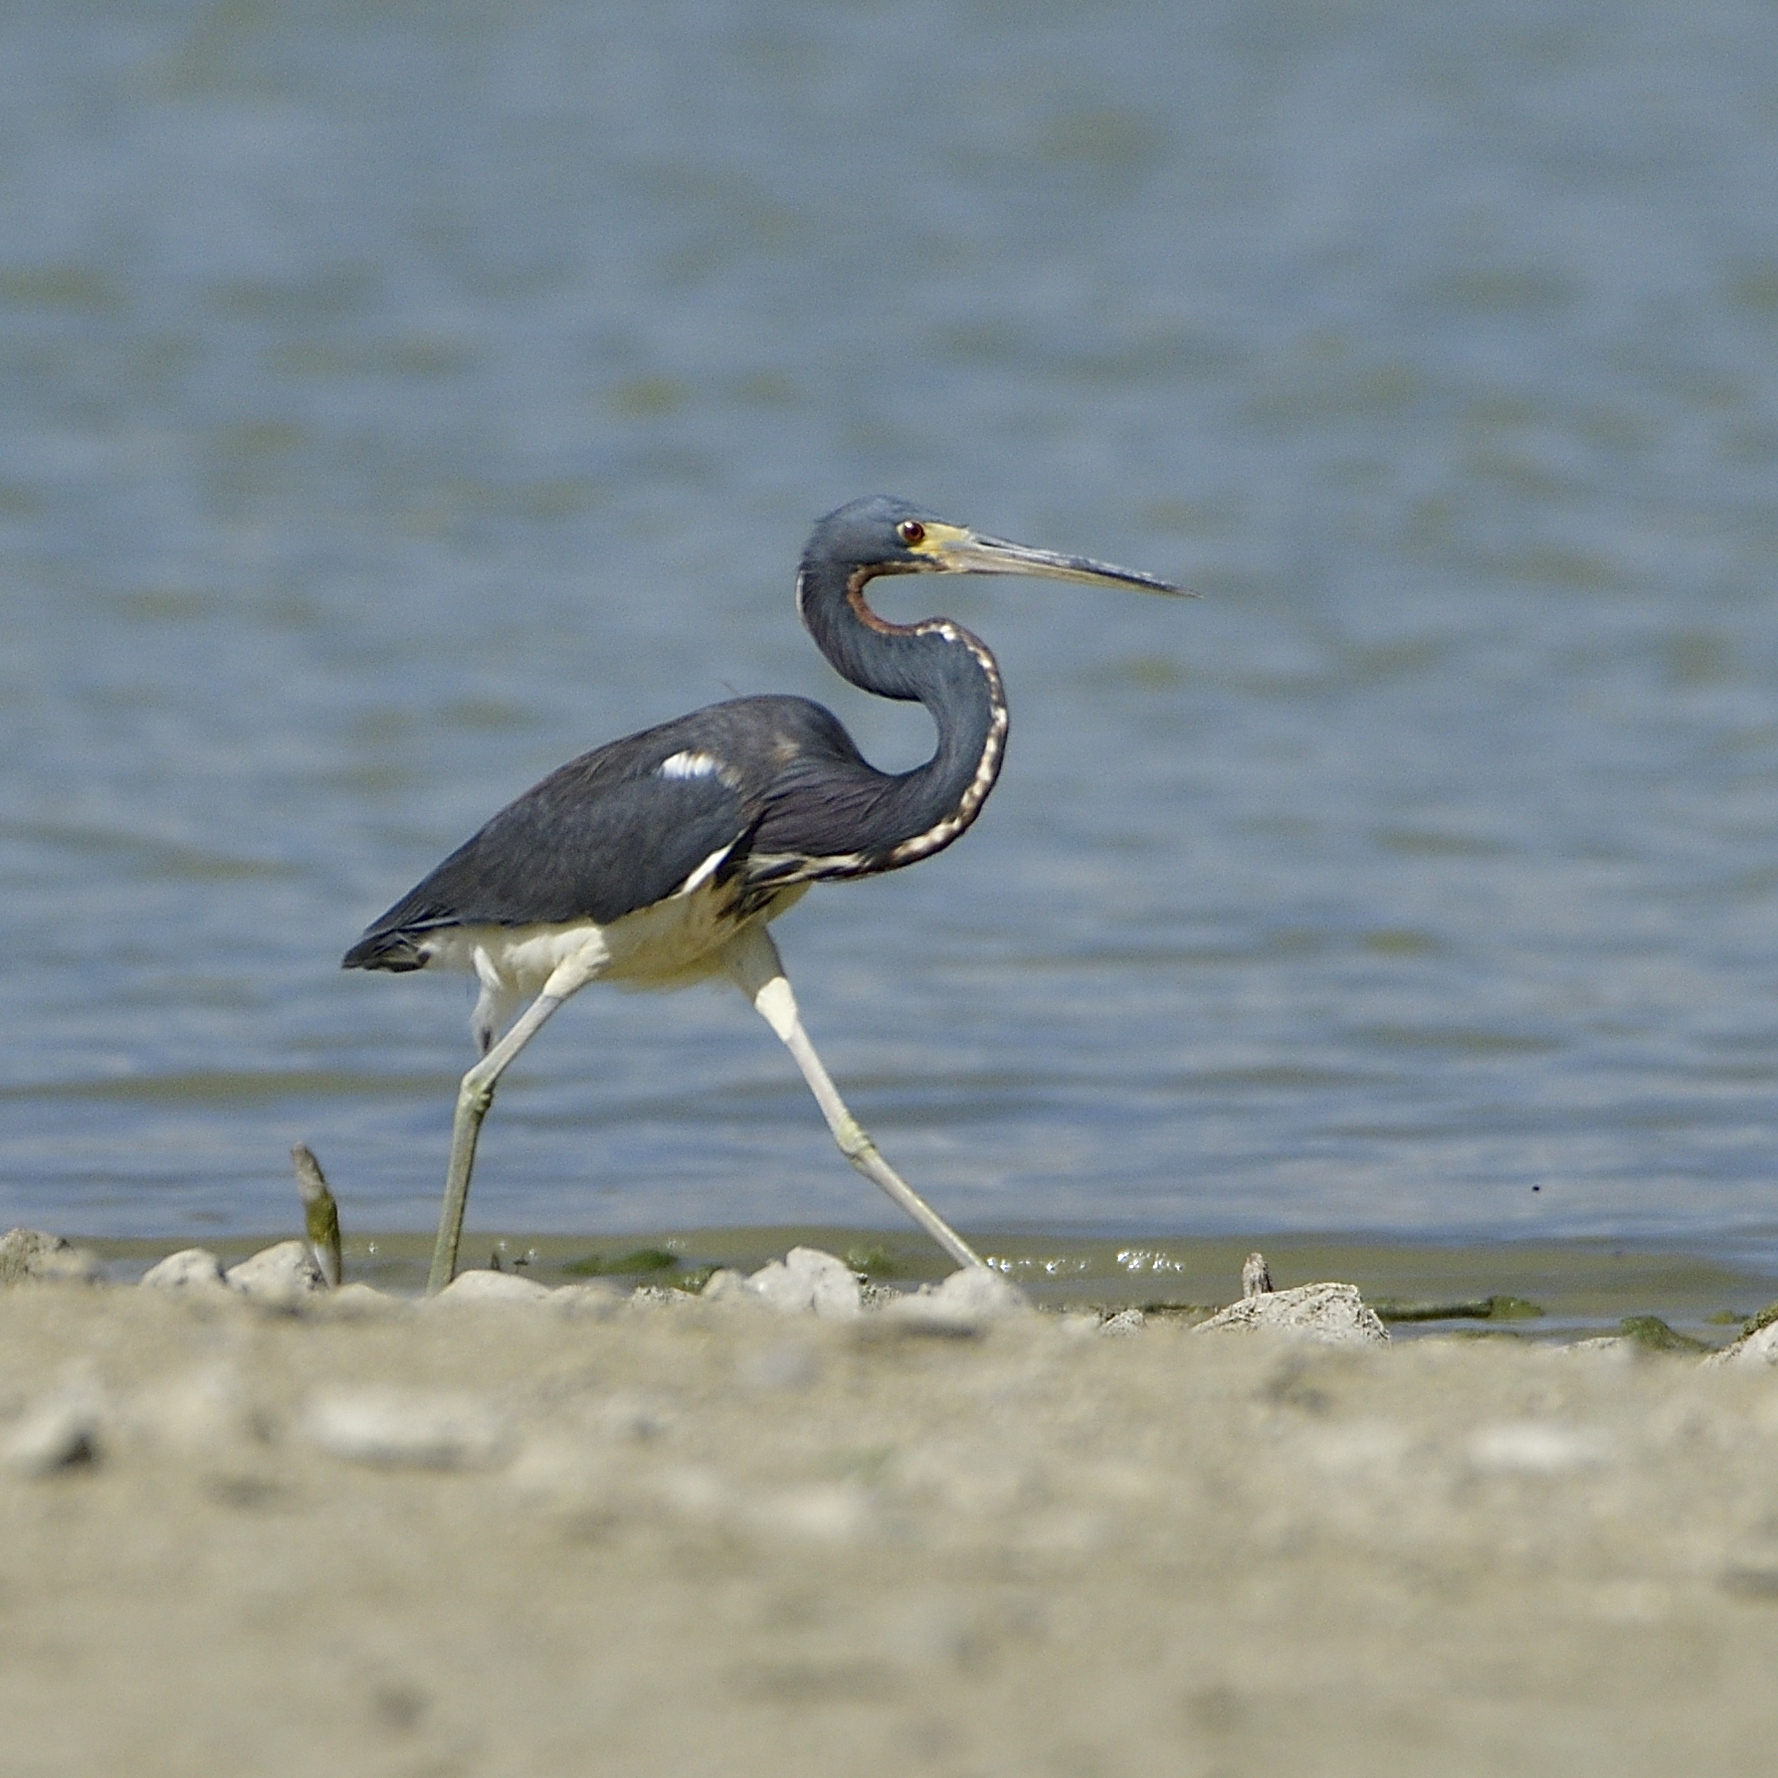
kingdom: Animalia
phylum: Chordata
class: Aves
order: Pelecaniformes
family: Ardeidae
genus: Egretta
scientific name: Egretta tricolor
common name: Tricolored heron
